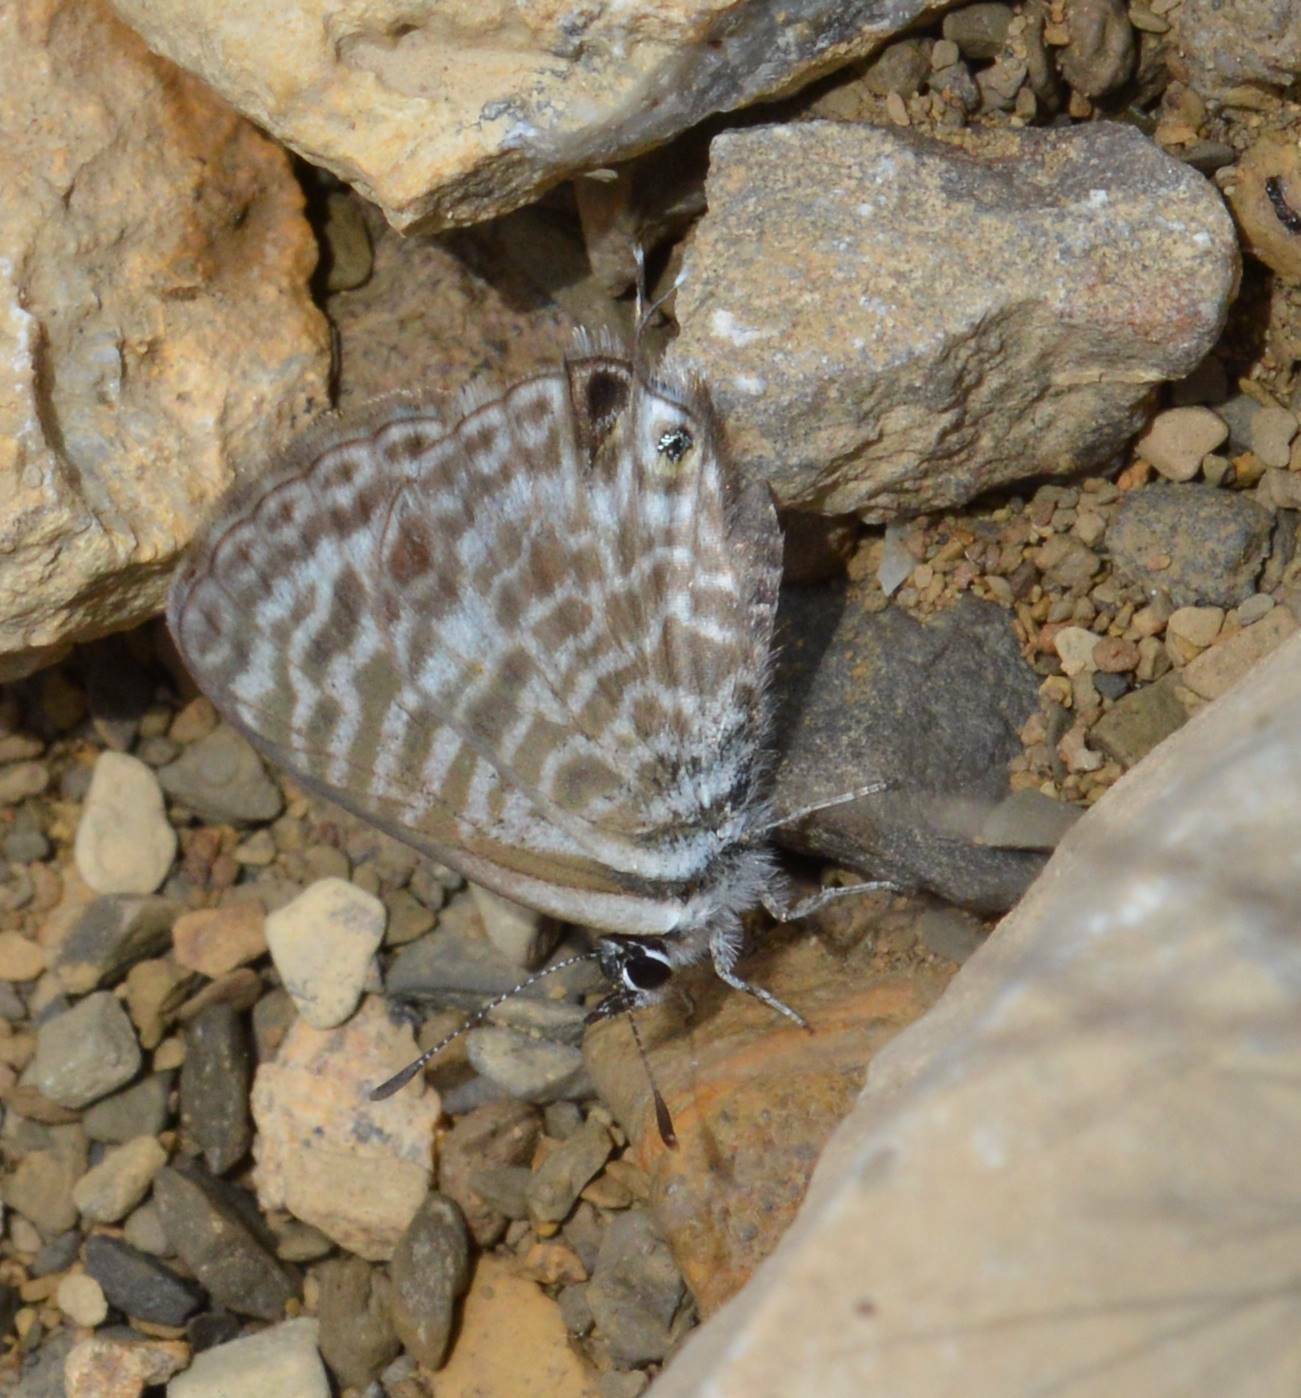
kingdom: Animalia
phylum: Arthropoda
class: Insecta
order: Lepidoptera
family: Lycaenidae
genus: Leptotes
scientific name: Leptotes pirithous
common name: Lang's short-tailed blue
